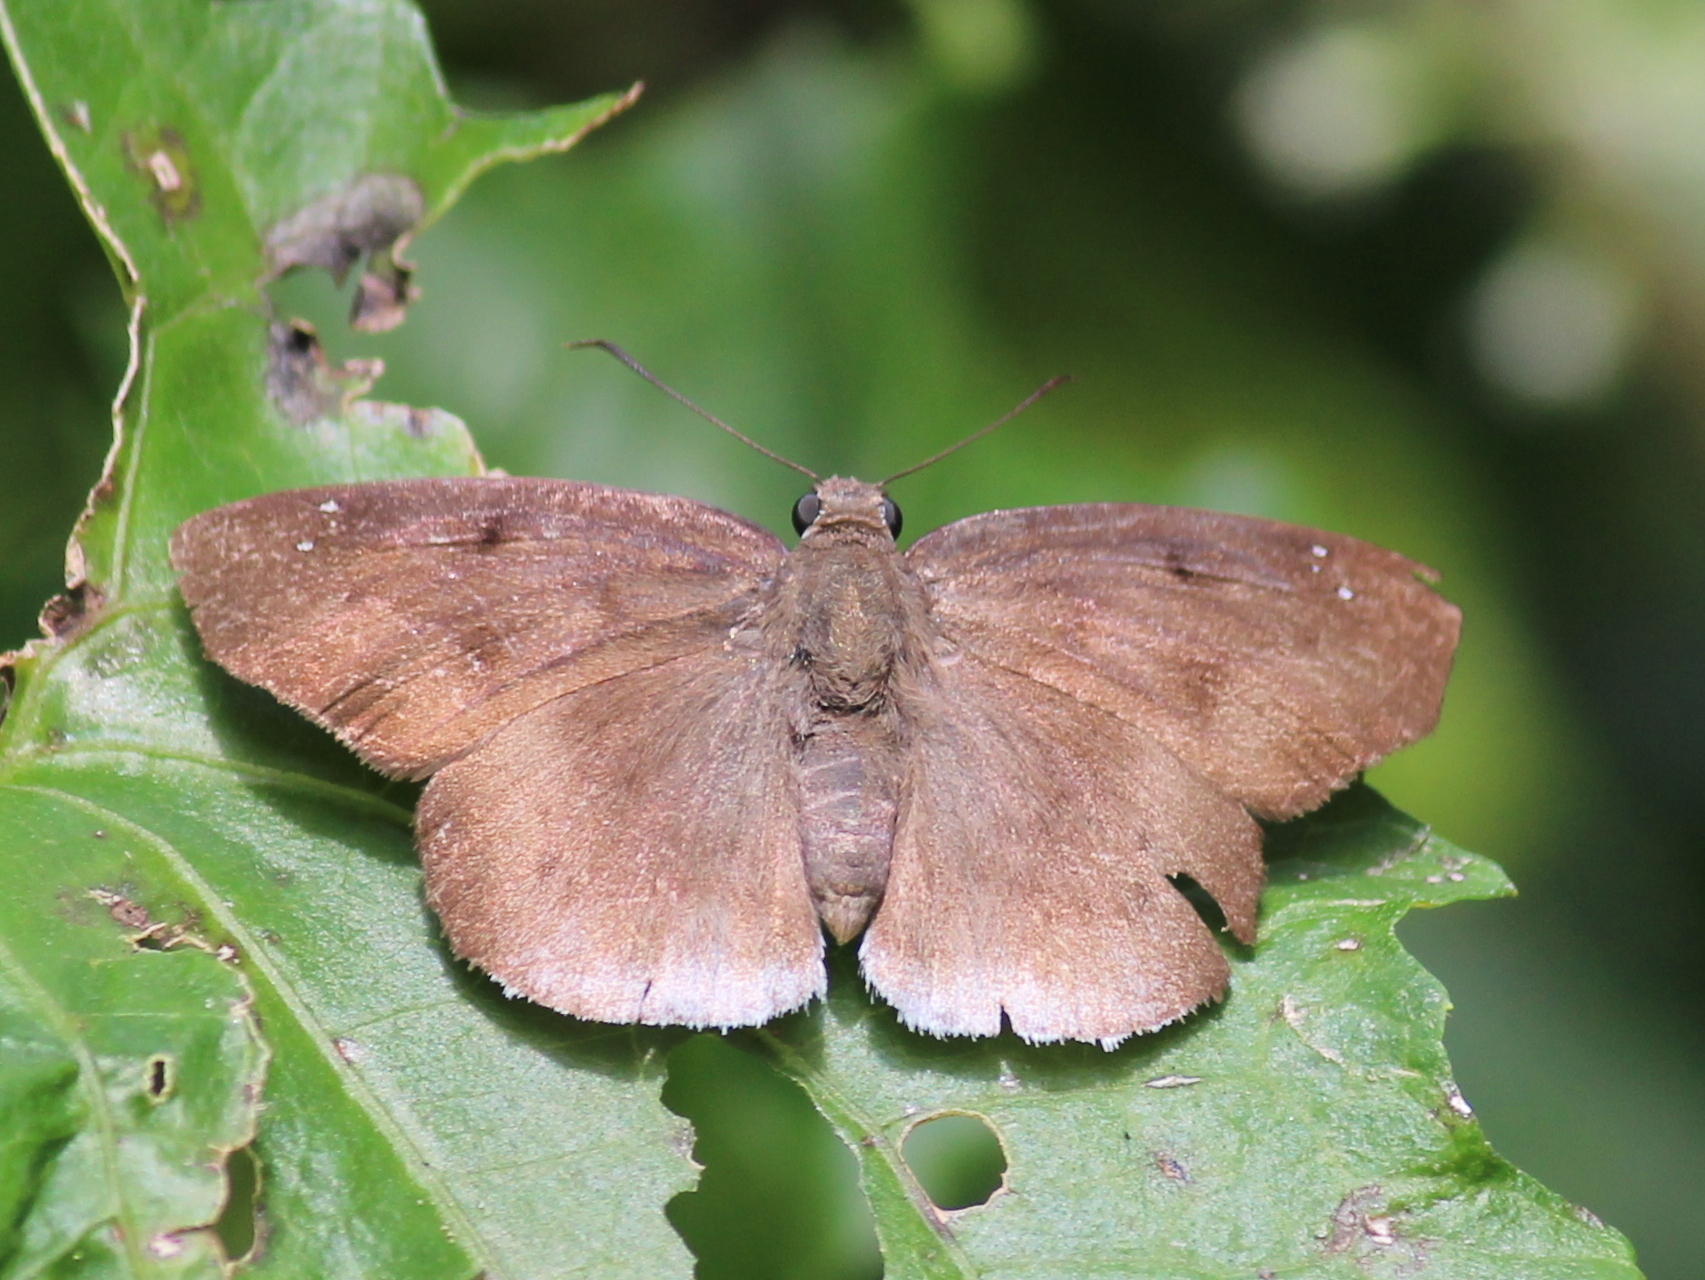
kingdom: Animalia
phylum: Arthropoda
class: Insecta
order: Lepidoptera
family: Hesperiidae
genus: Tagiades
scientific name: Tagiades gana
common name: Suffused snow flat
